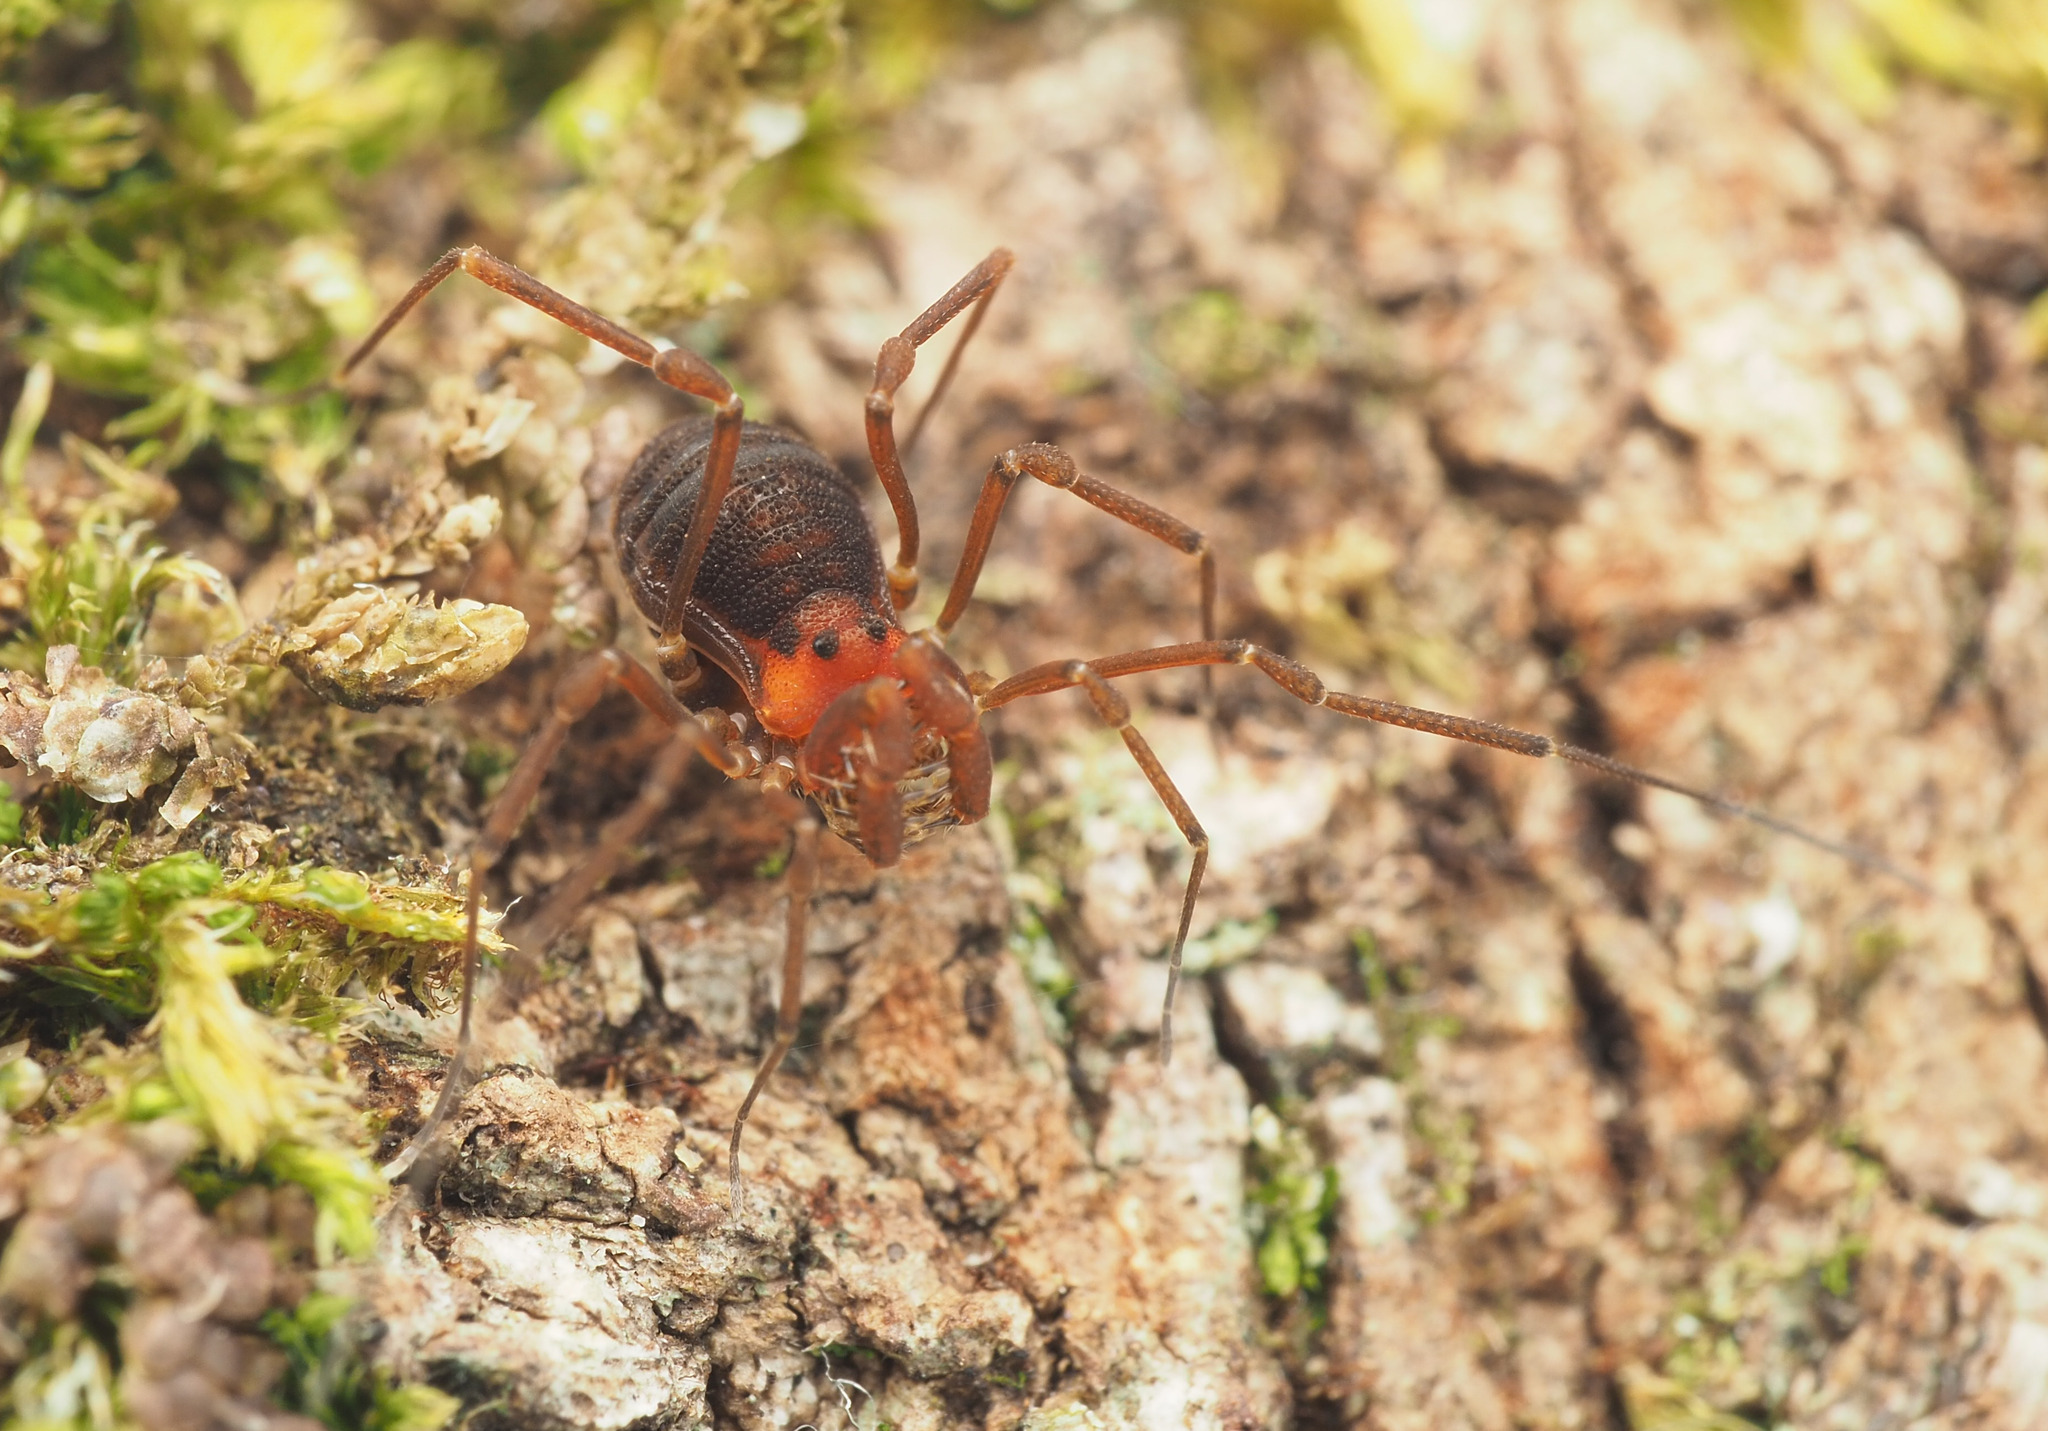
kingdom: Animalia
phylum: Arthropoda
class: Arachnida
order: Opiliones
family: Phalangodidae
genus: Bogania
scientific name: Bogania neogranulata
